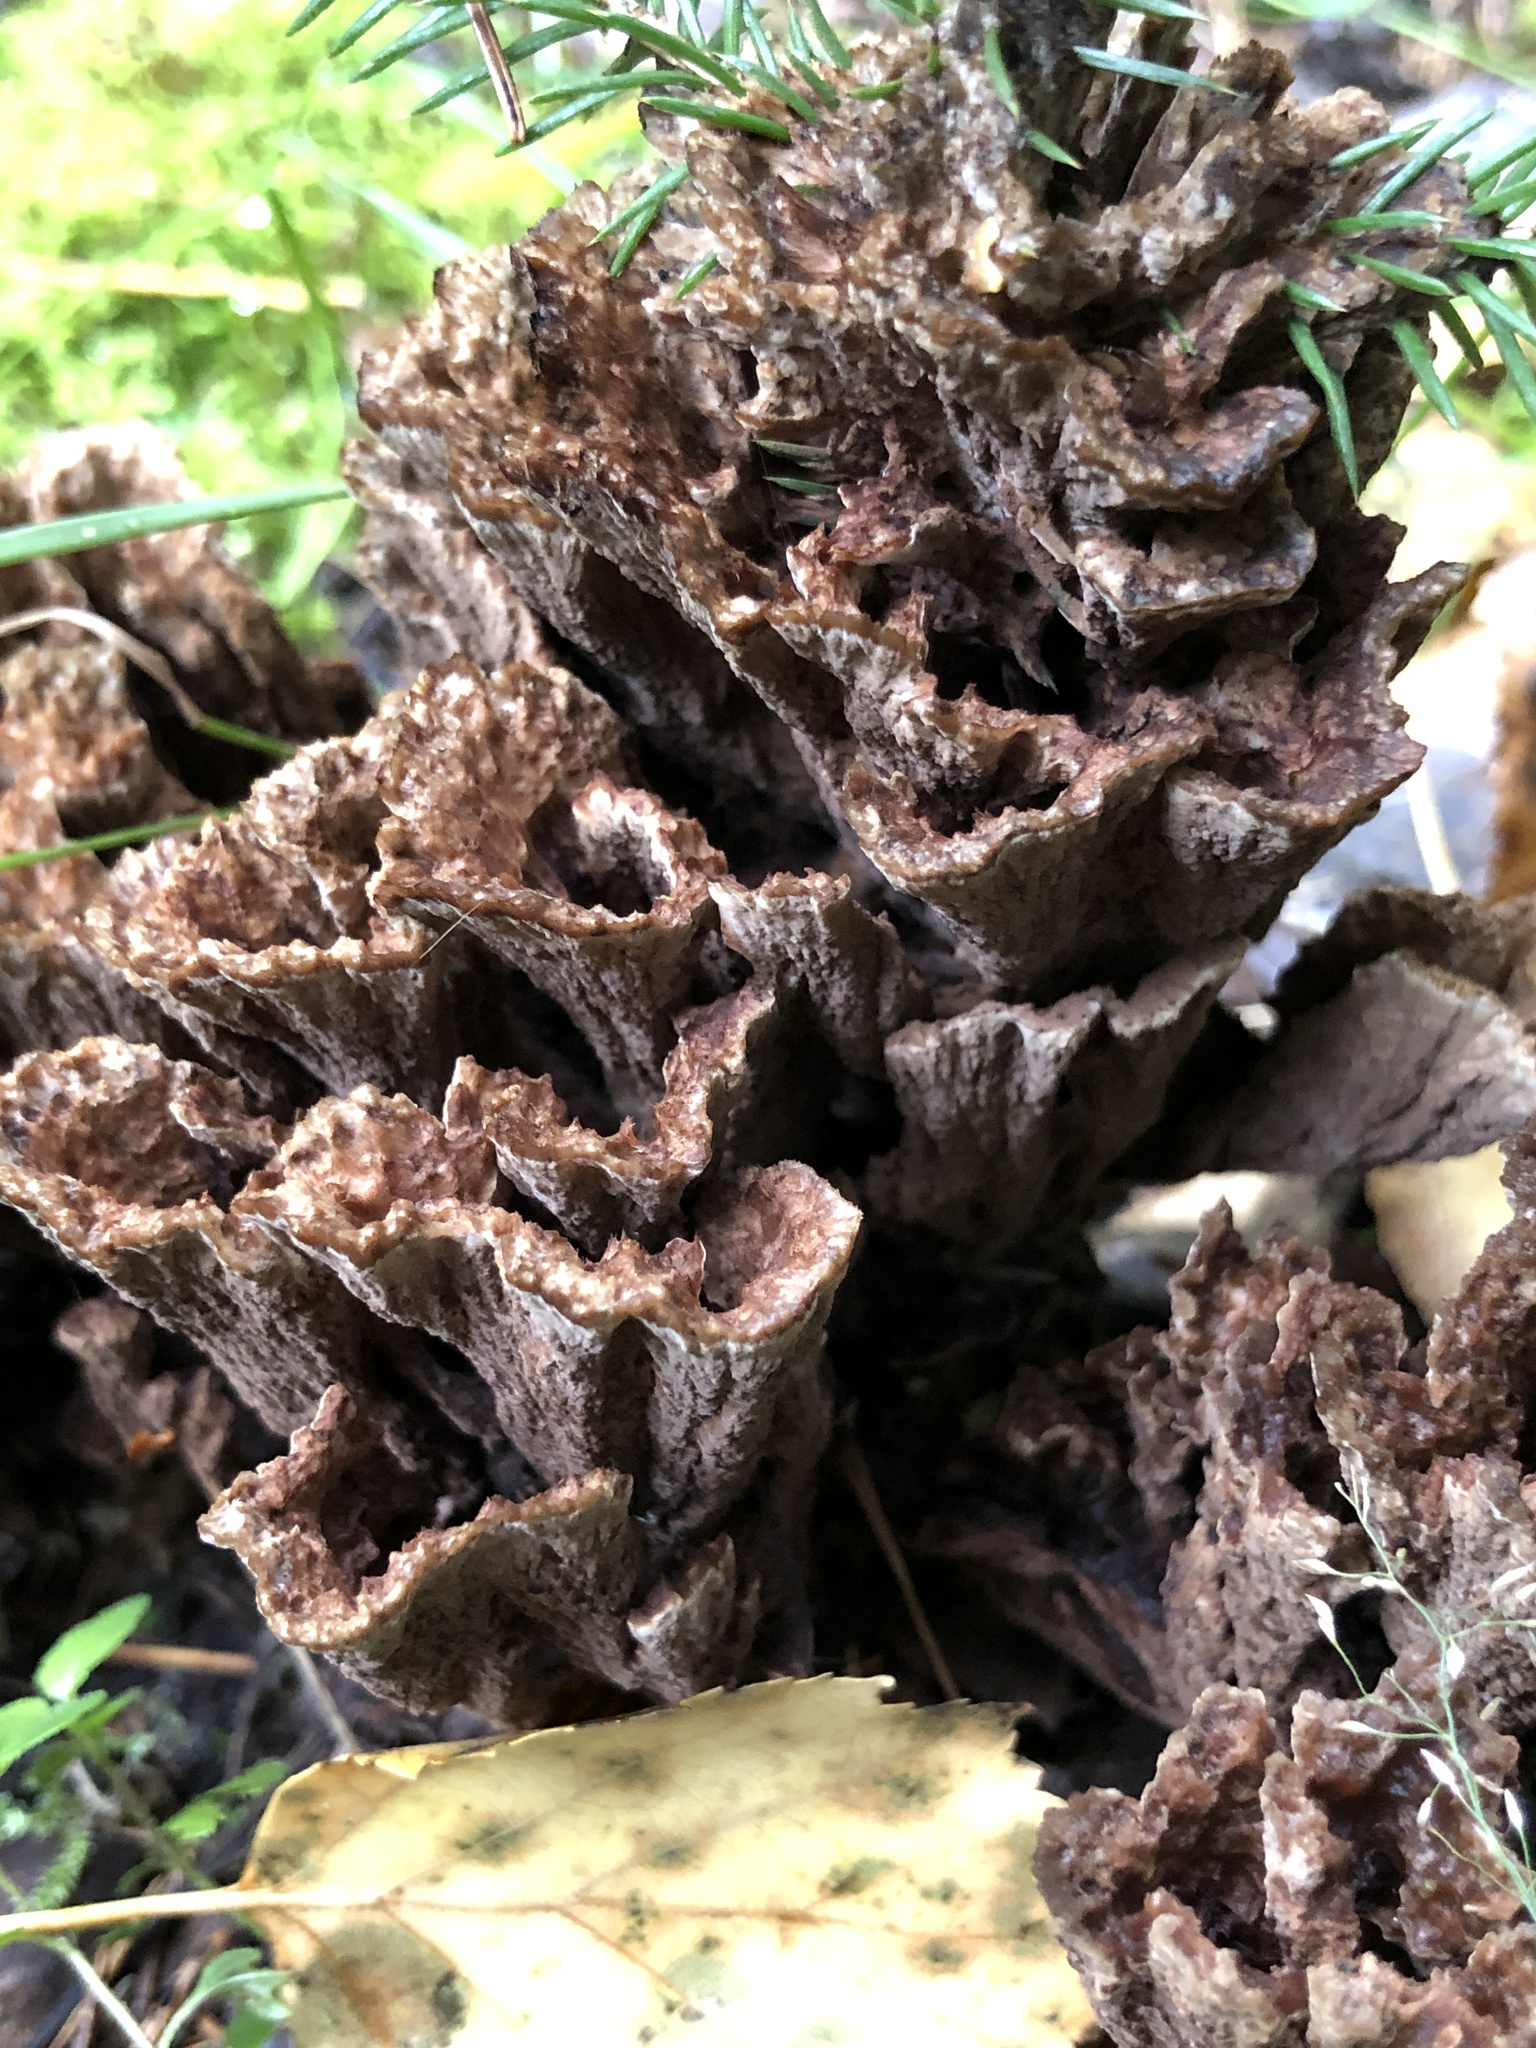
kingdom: Fungi
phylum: Basidiomycota
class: Agaricomycetes
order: Thelephorales
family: Thelephoraceae
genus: Thelephora
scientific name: Thelephora terrestris
